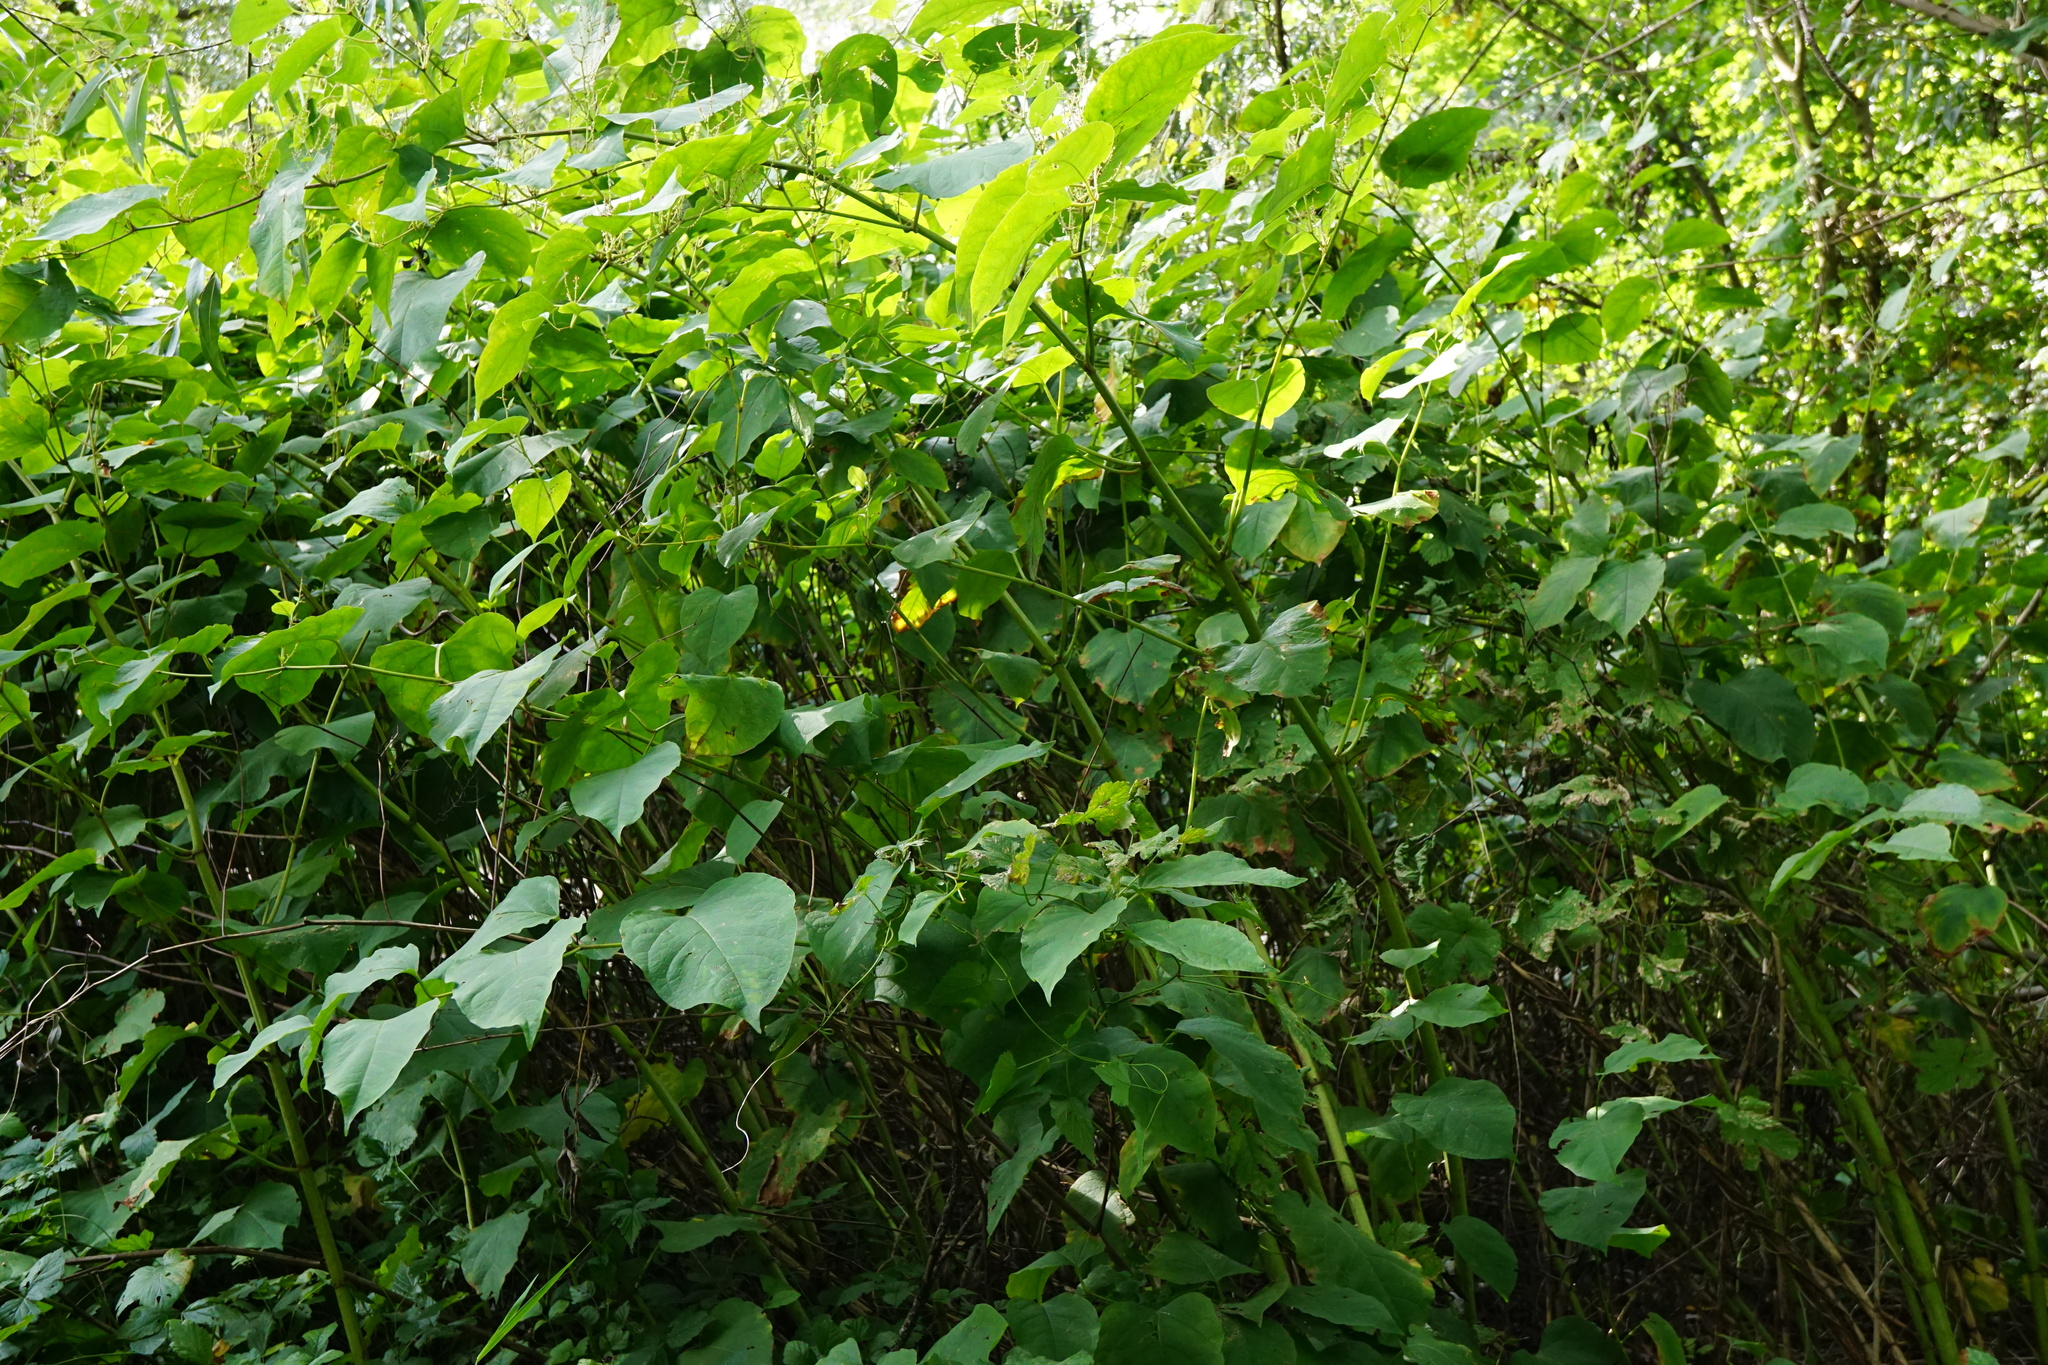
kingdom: Plantae
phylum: Tracheophyta
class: Magnoliopsida
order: Caryophyllales
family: Polygonaceae
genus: Reynoutria
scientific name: Reynoutria bohemica
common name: Bohemian knotweed
